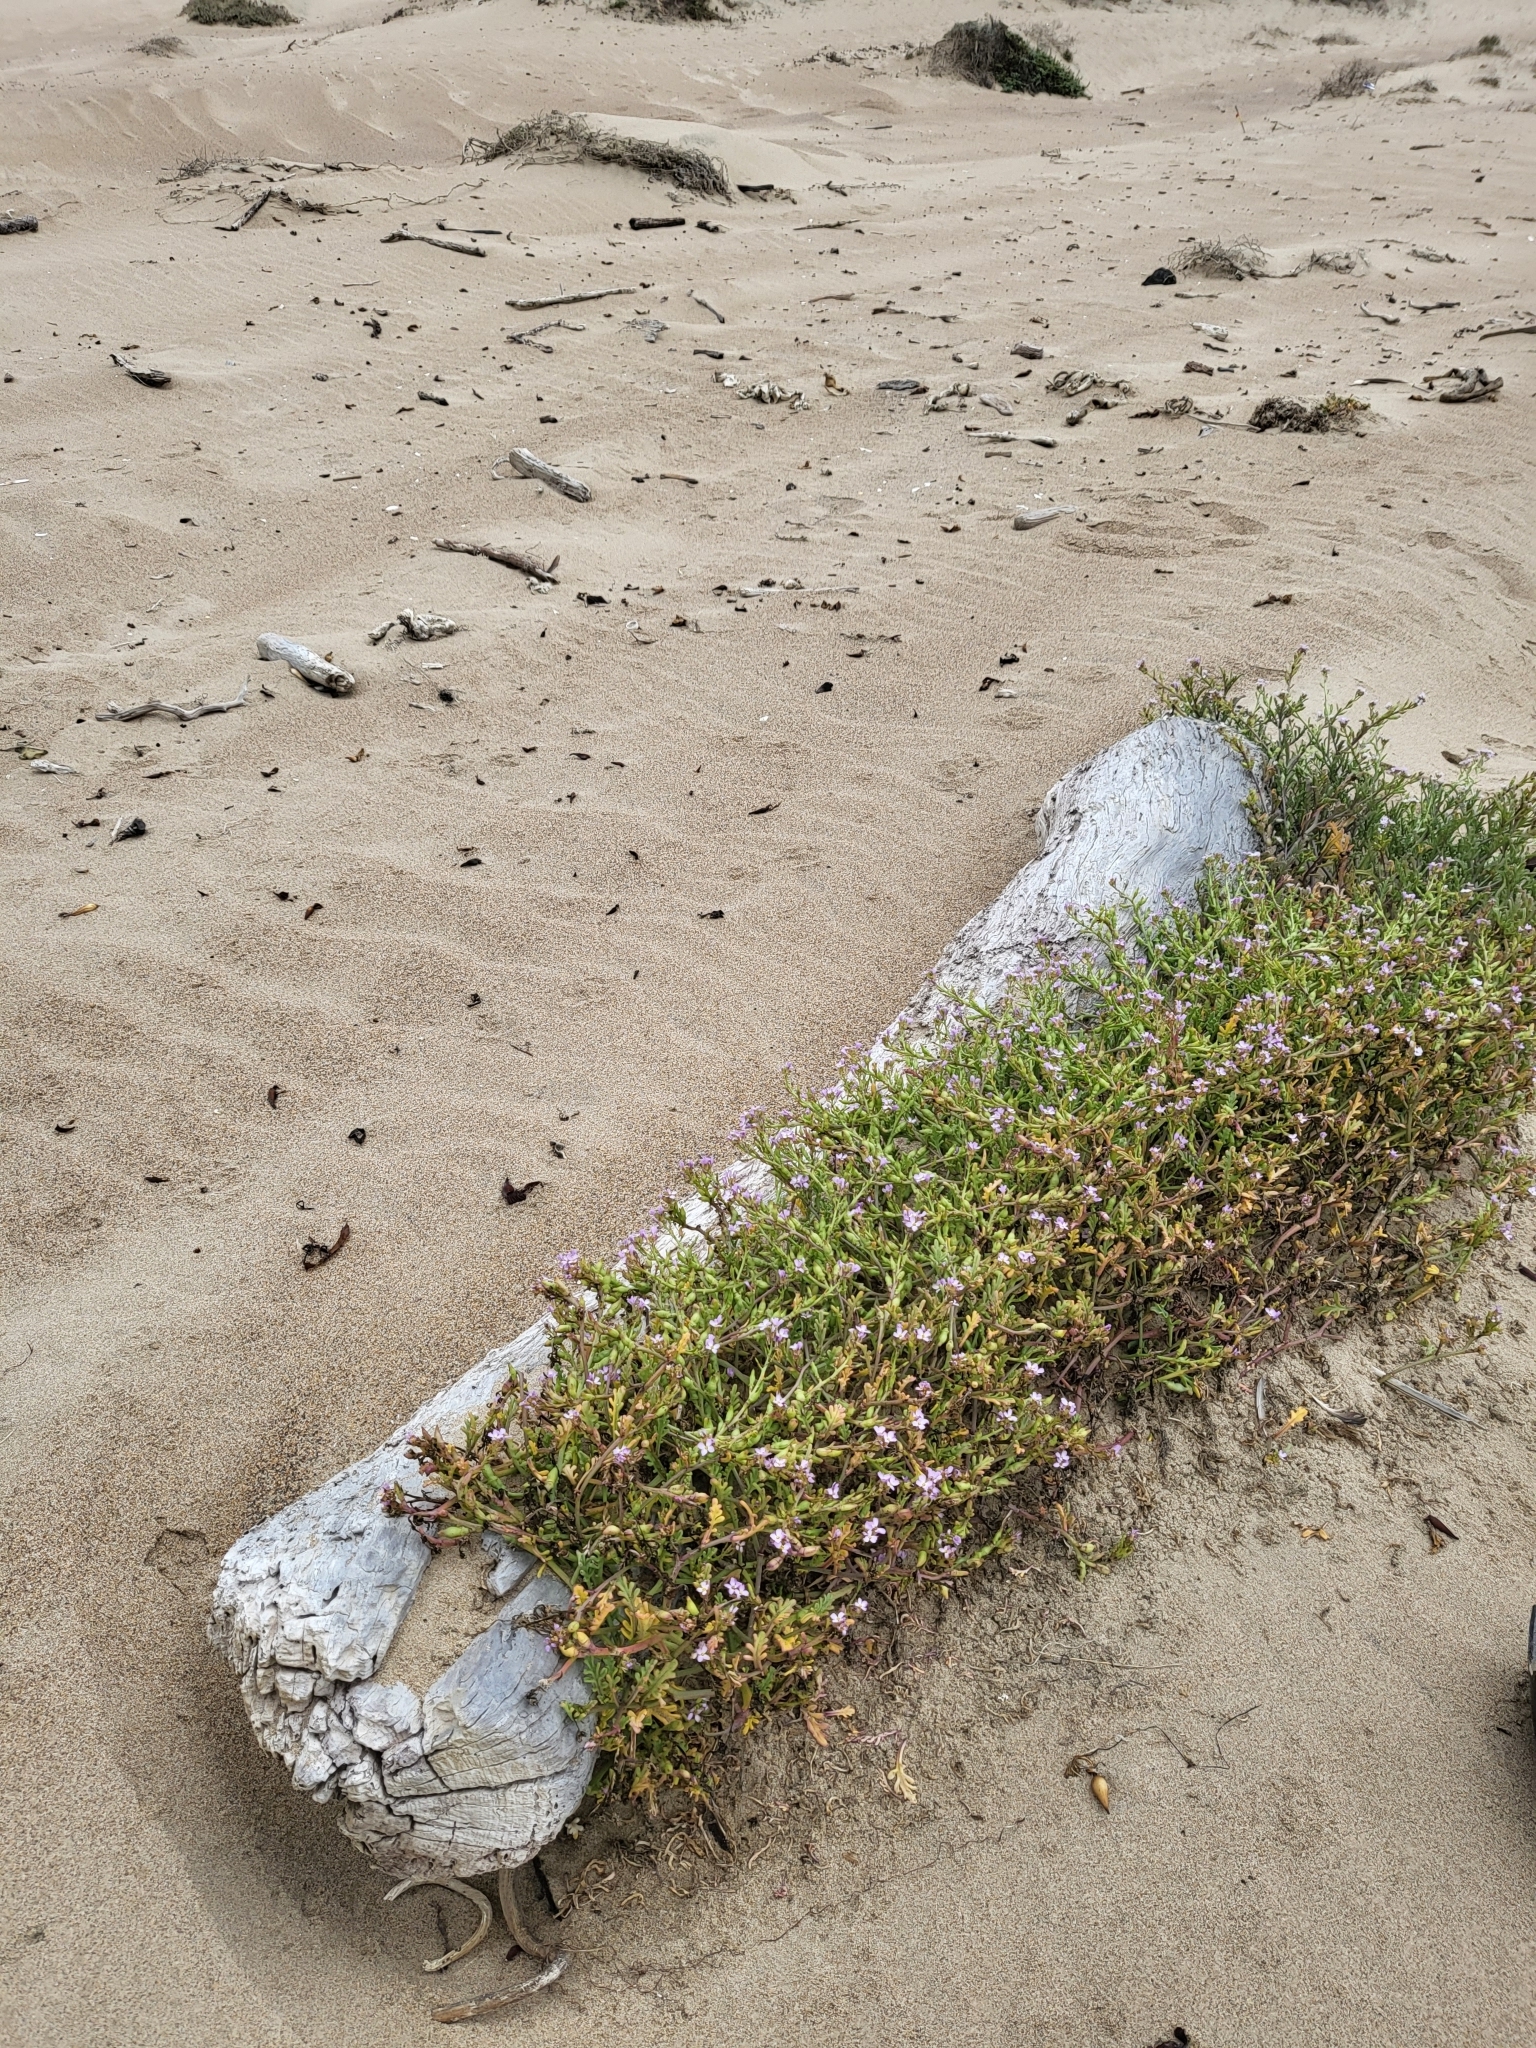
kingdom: Plantae
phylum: Tracheophyta
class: Magnoliopsida
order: Brassicales
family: Brassicaceae
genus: Cakile
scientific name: Cakile maritima
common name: Sea rocket
